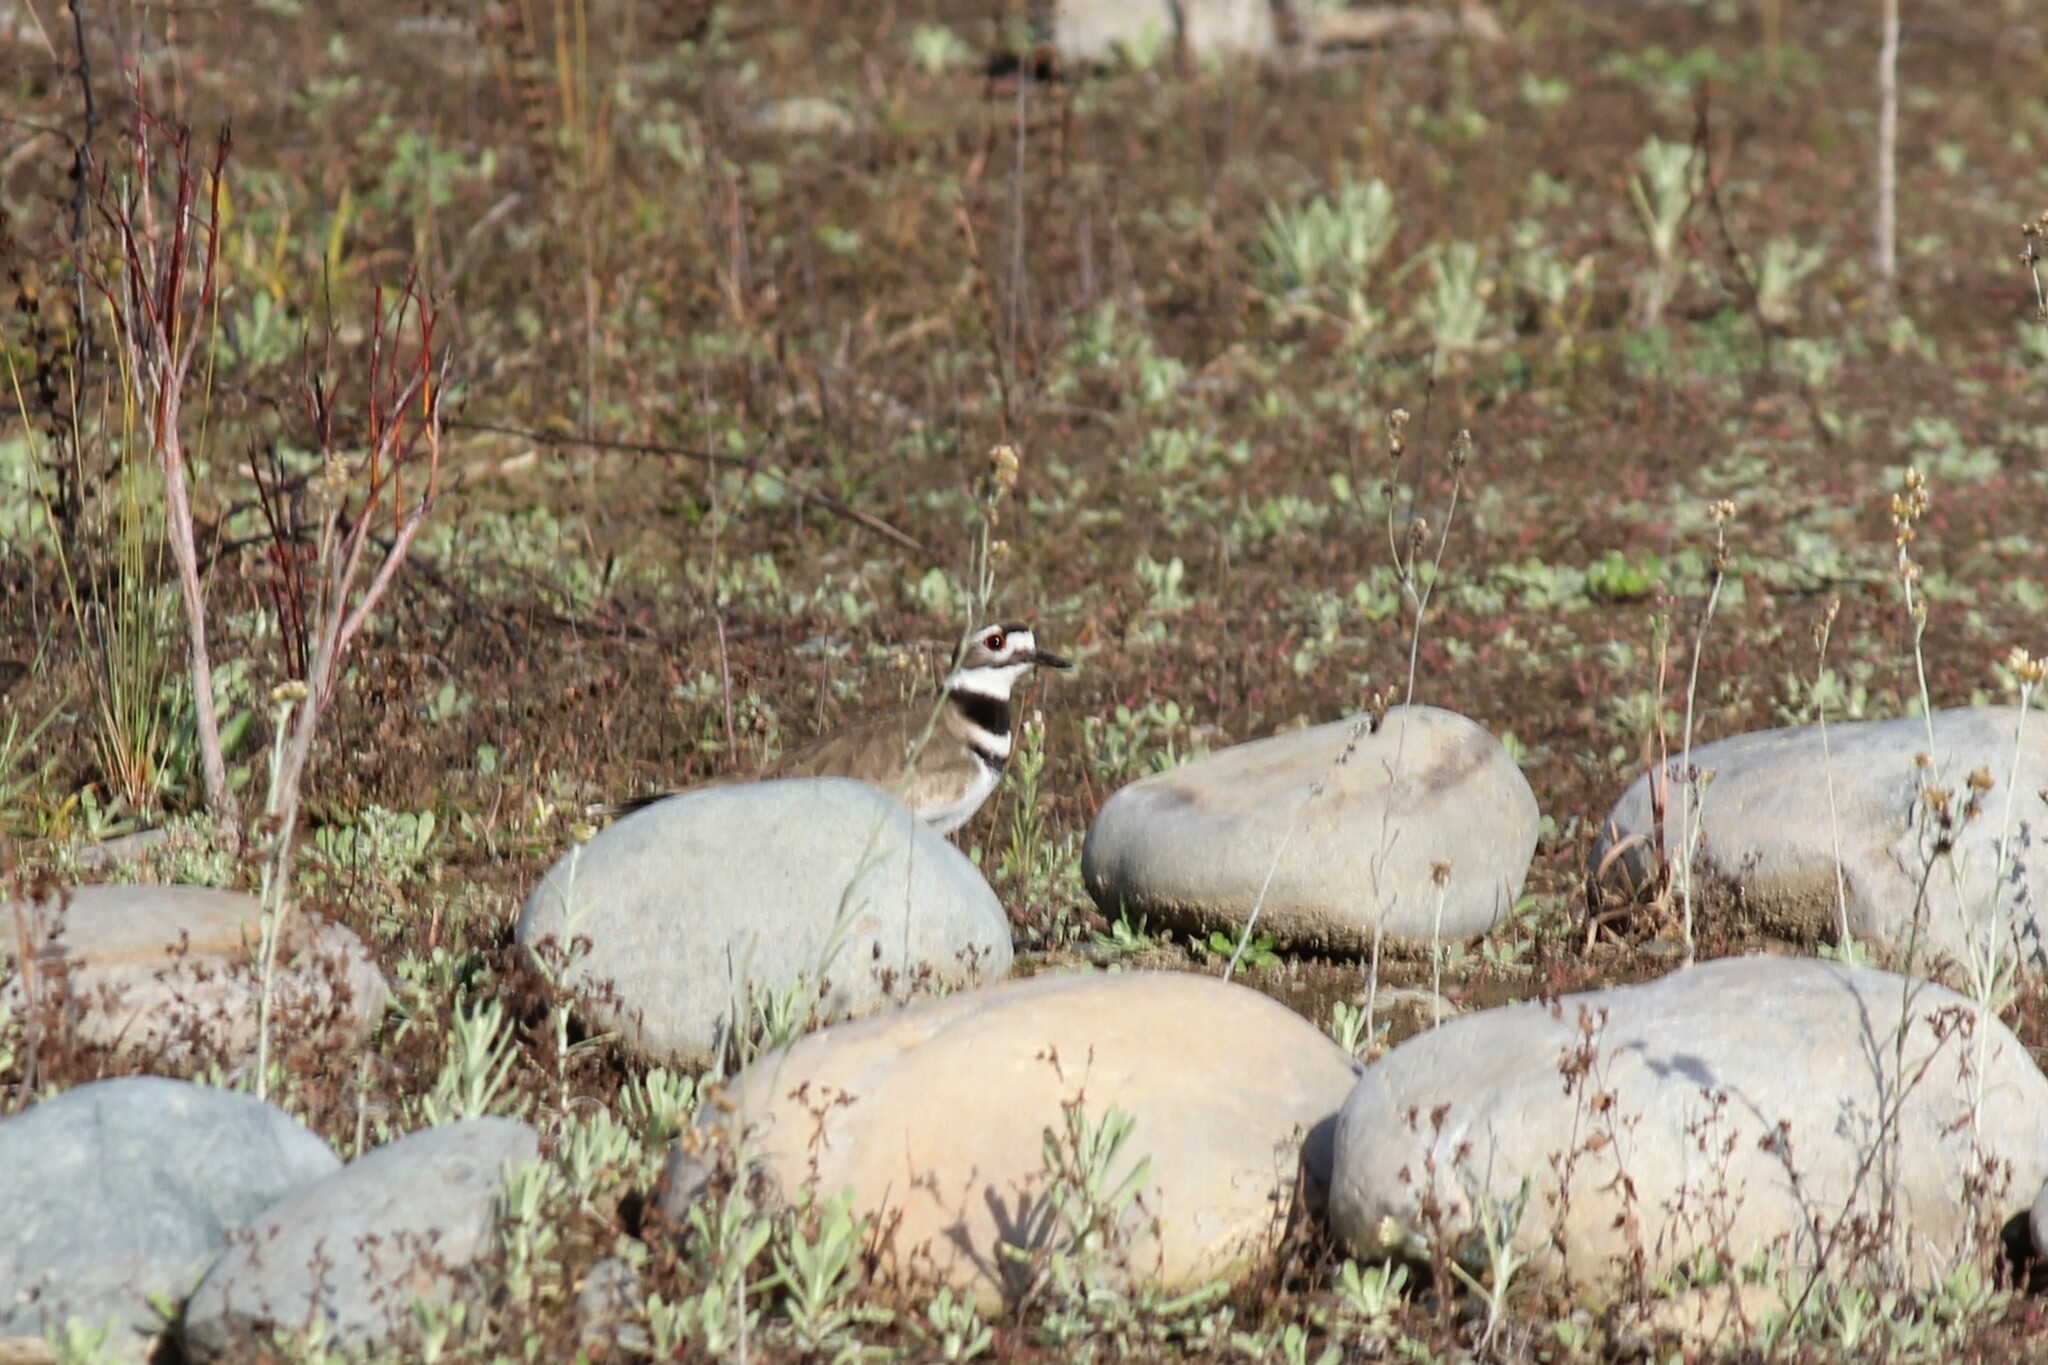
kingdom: Animalia
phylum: Chordata
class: Aves
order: Charadriiformes
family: Charadriidae
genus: Charadrius
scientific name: Charadrius vociferus
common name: Killdeer
